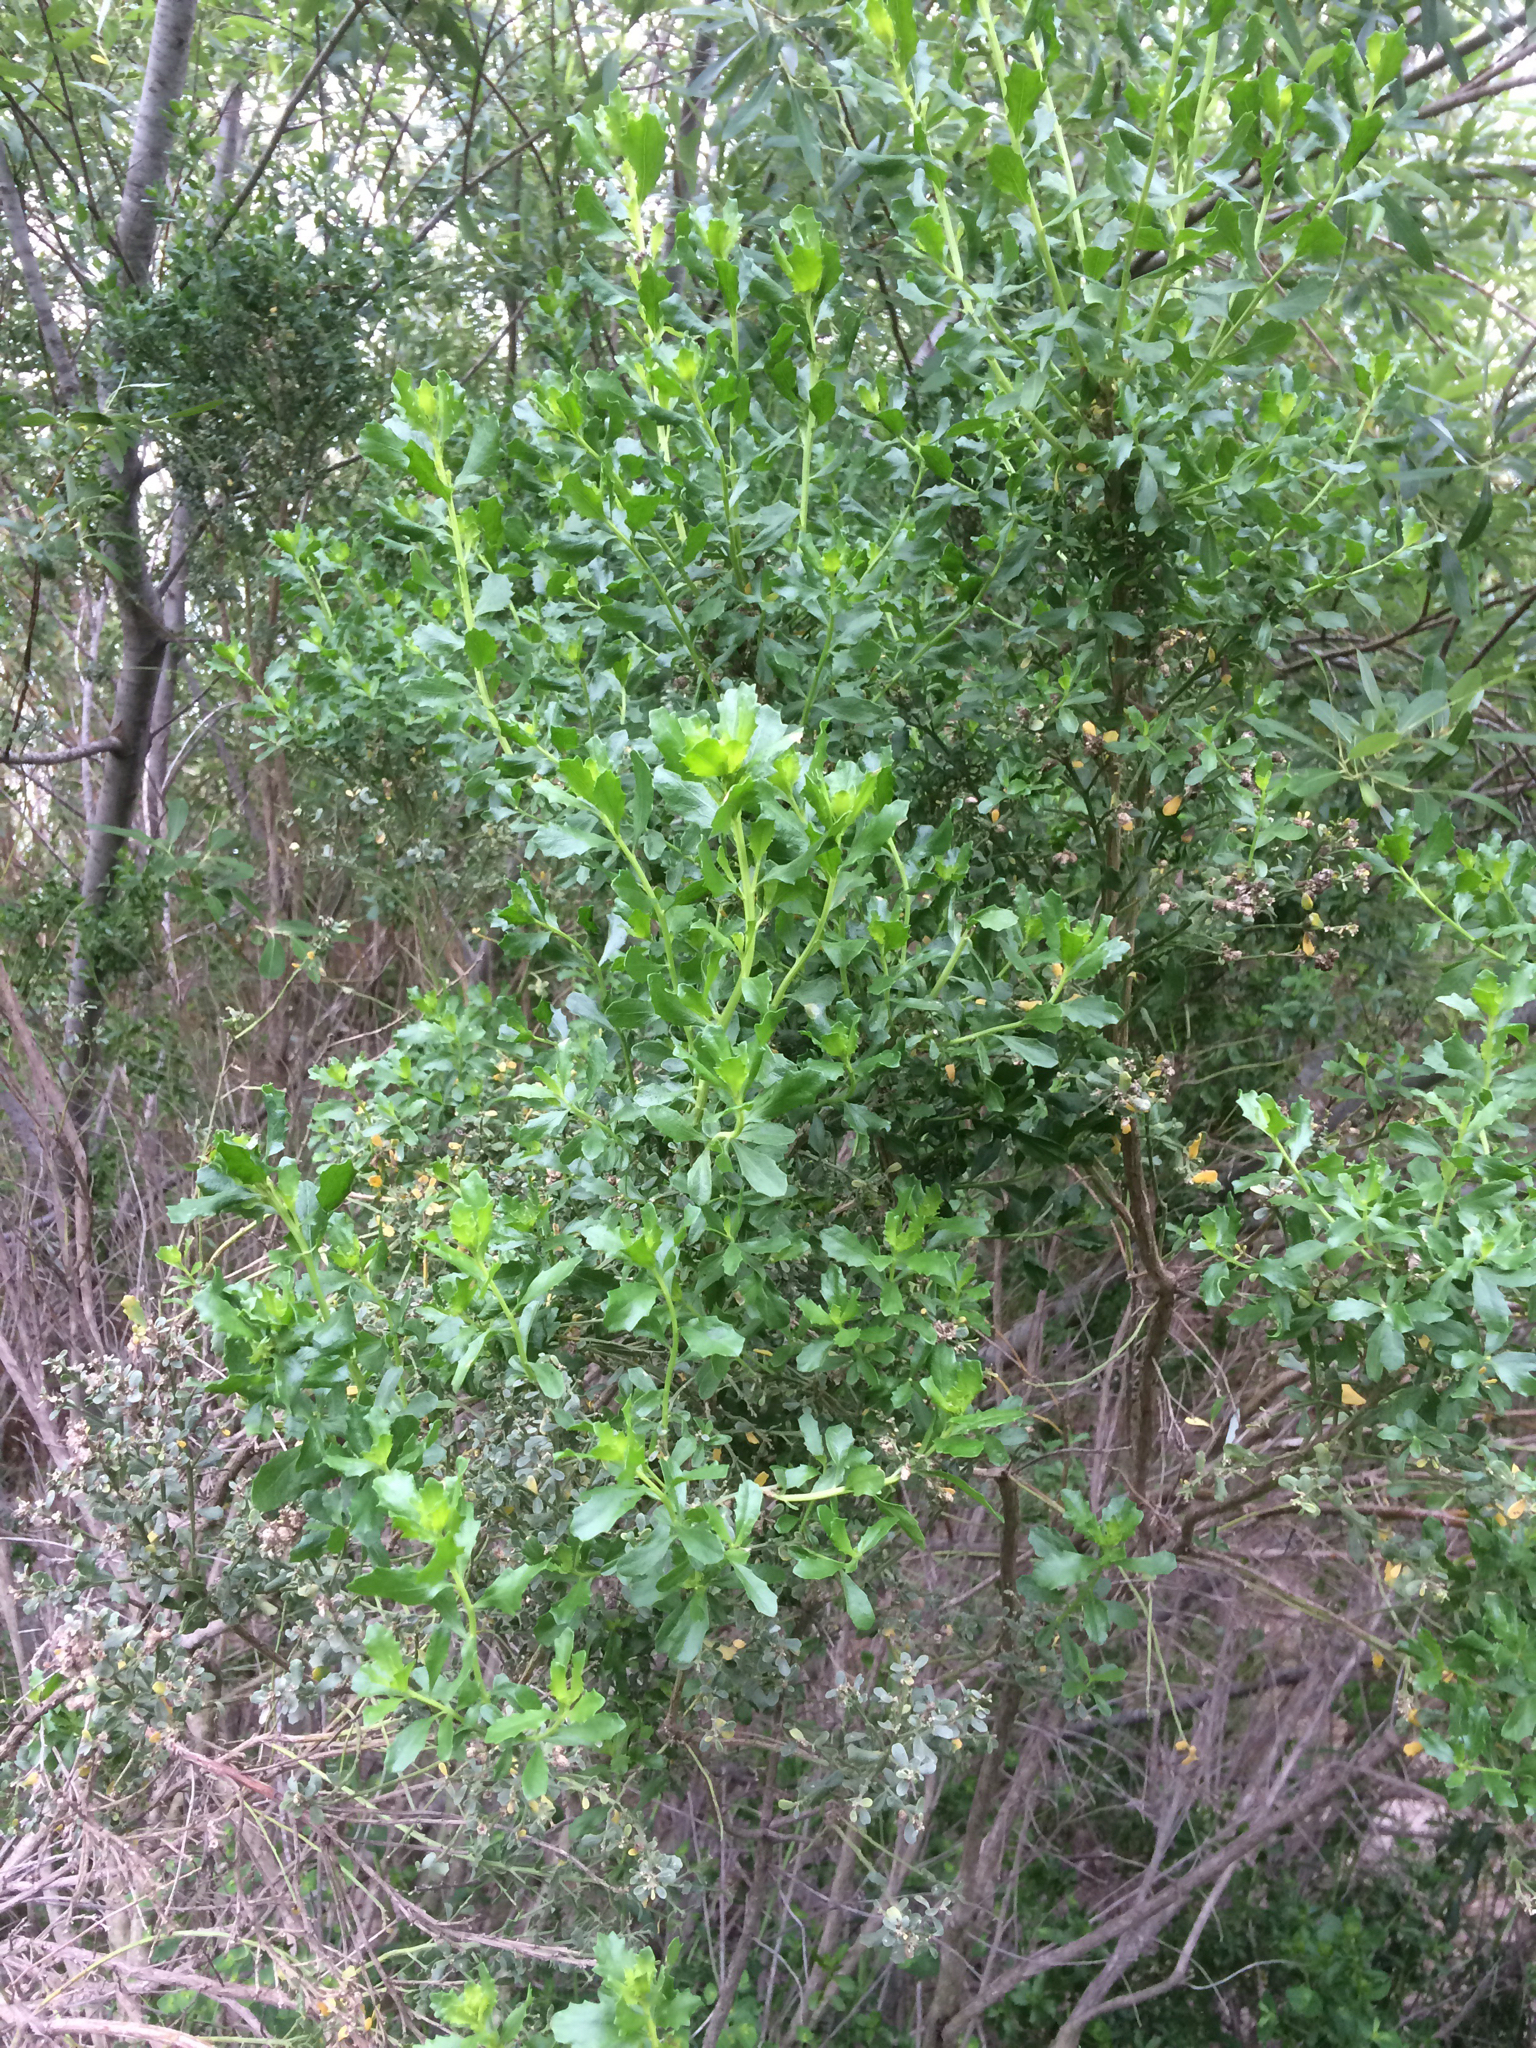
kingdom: Plantae
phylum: Tracheophyta
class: Magnoliopsida
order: Asterales
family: Asteraceae
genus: Baccharis
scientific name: Baccharis pilularis
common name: Coyotebrush
